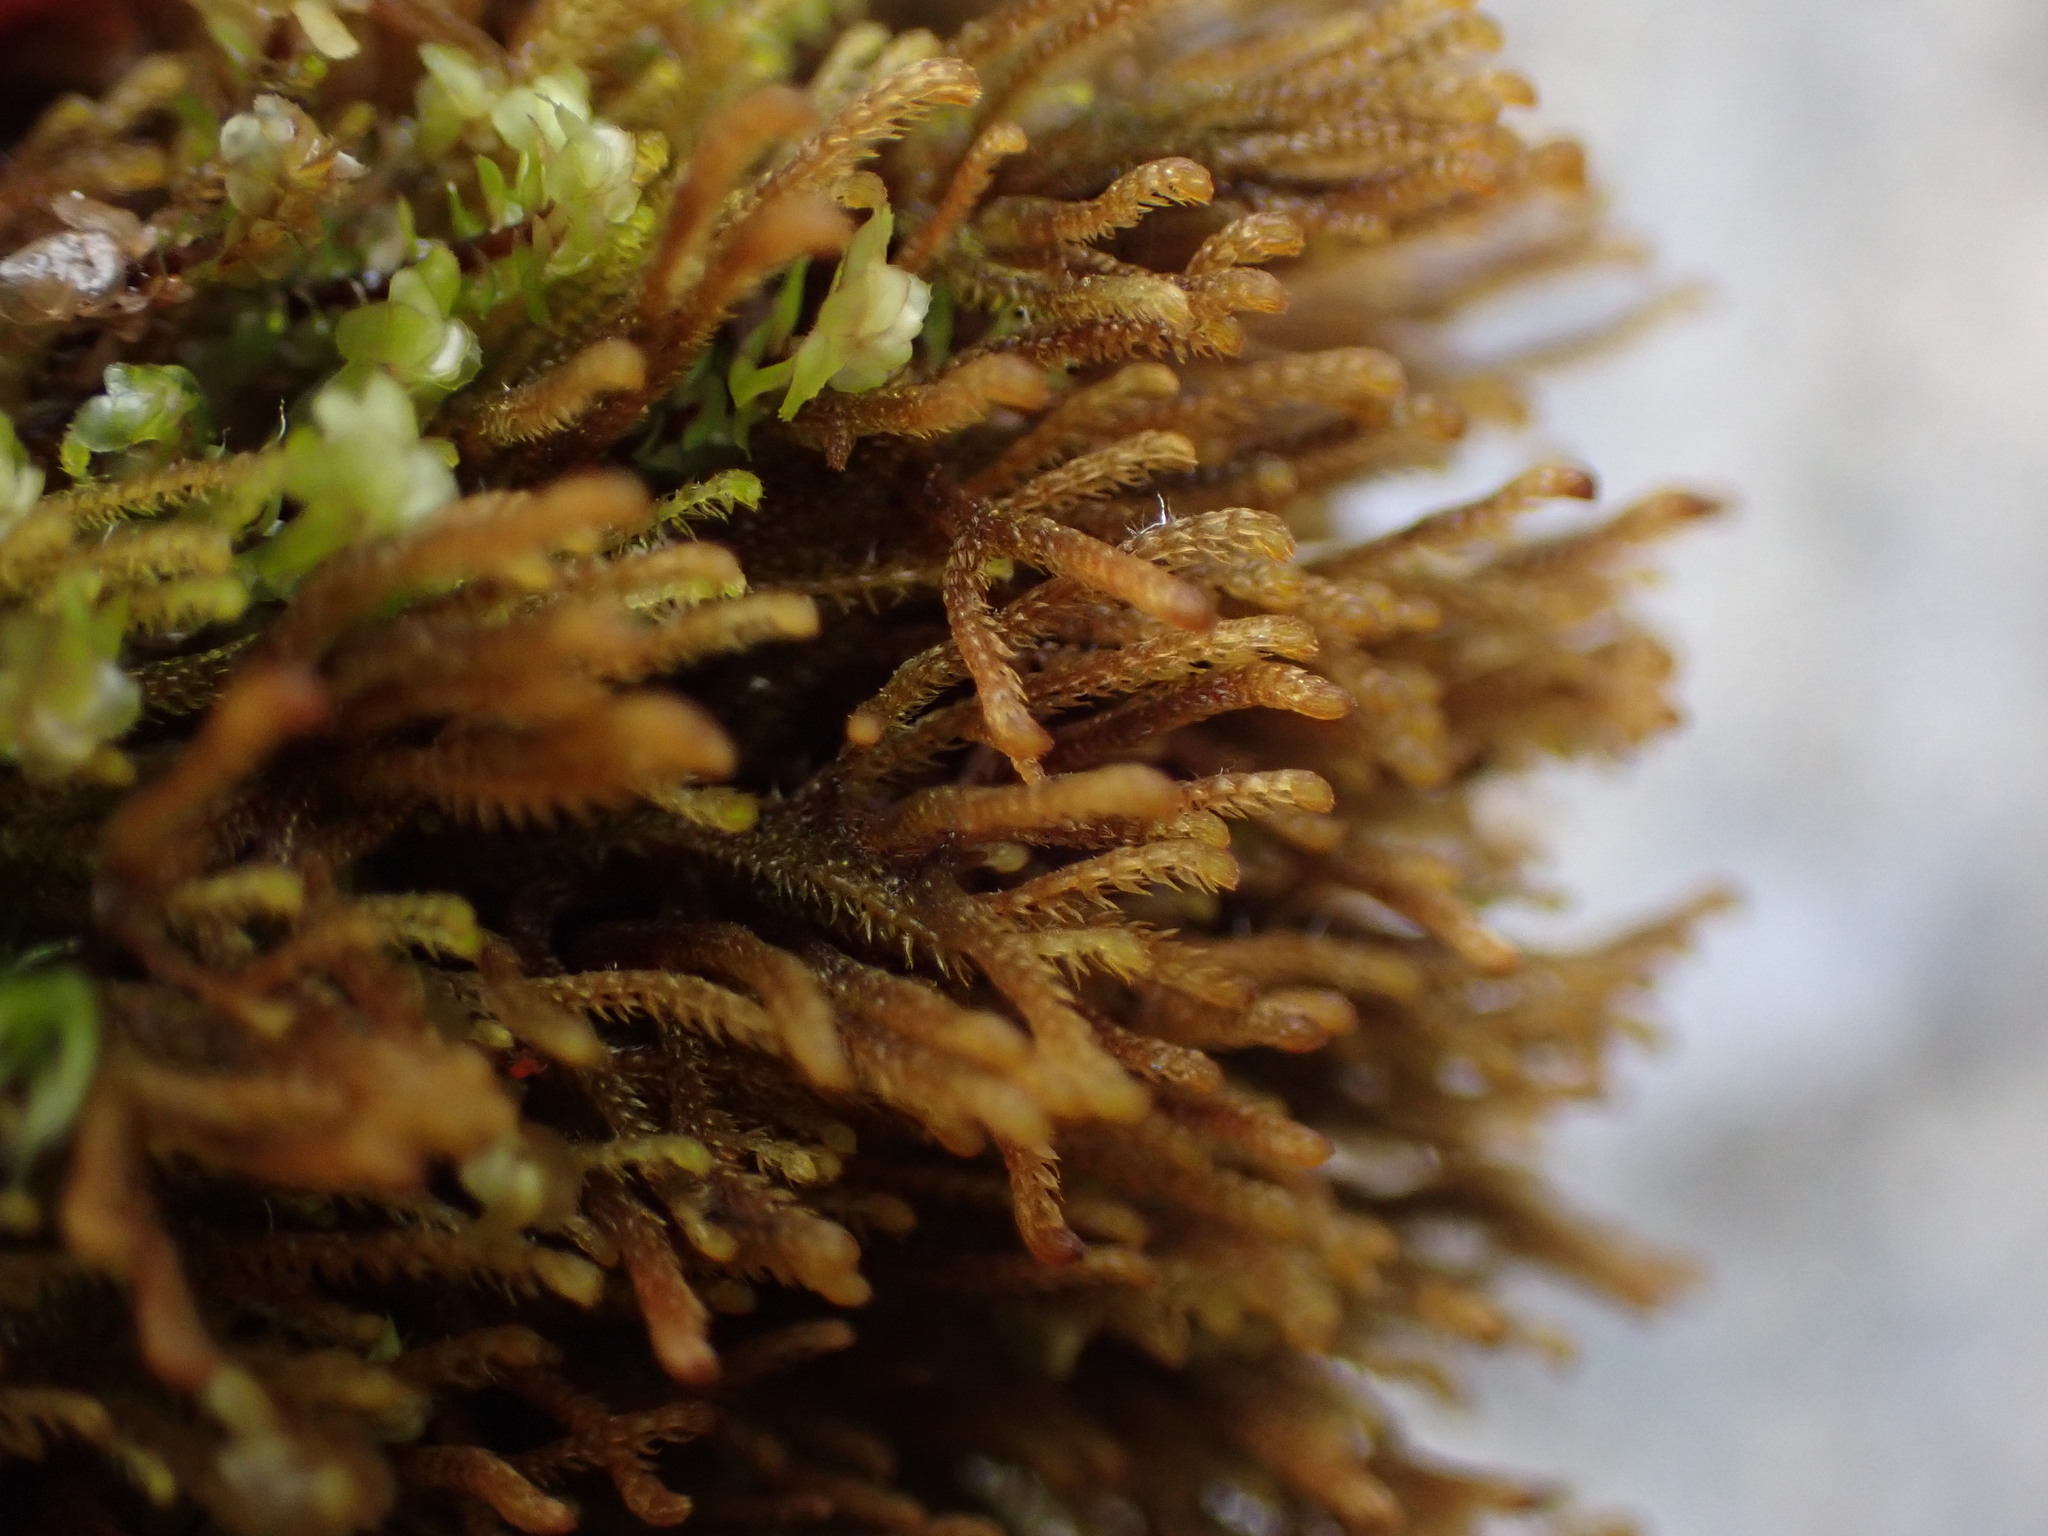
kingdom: Plantae
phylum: Marchantiophyta
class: Jungermanniopsida
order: Jungermanniales
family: Anastrophyllaceae
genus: Tetralophozia
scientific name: Tetralophozia setiformis
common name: Monster pawwort
